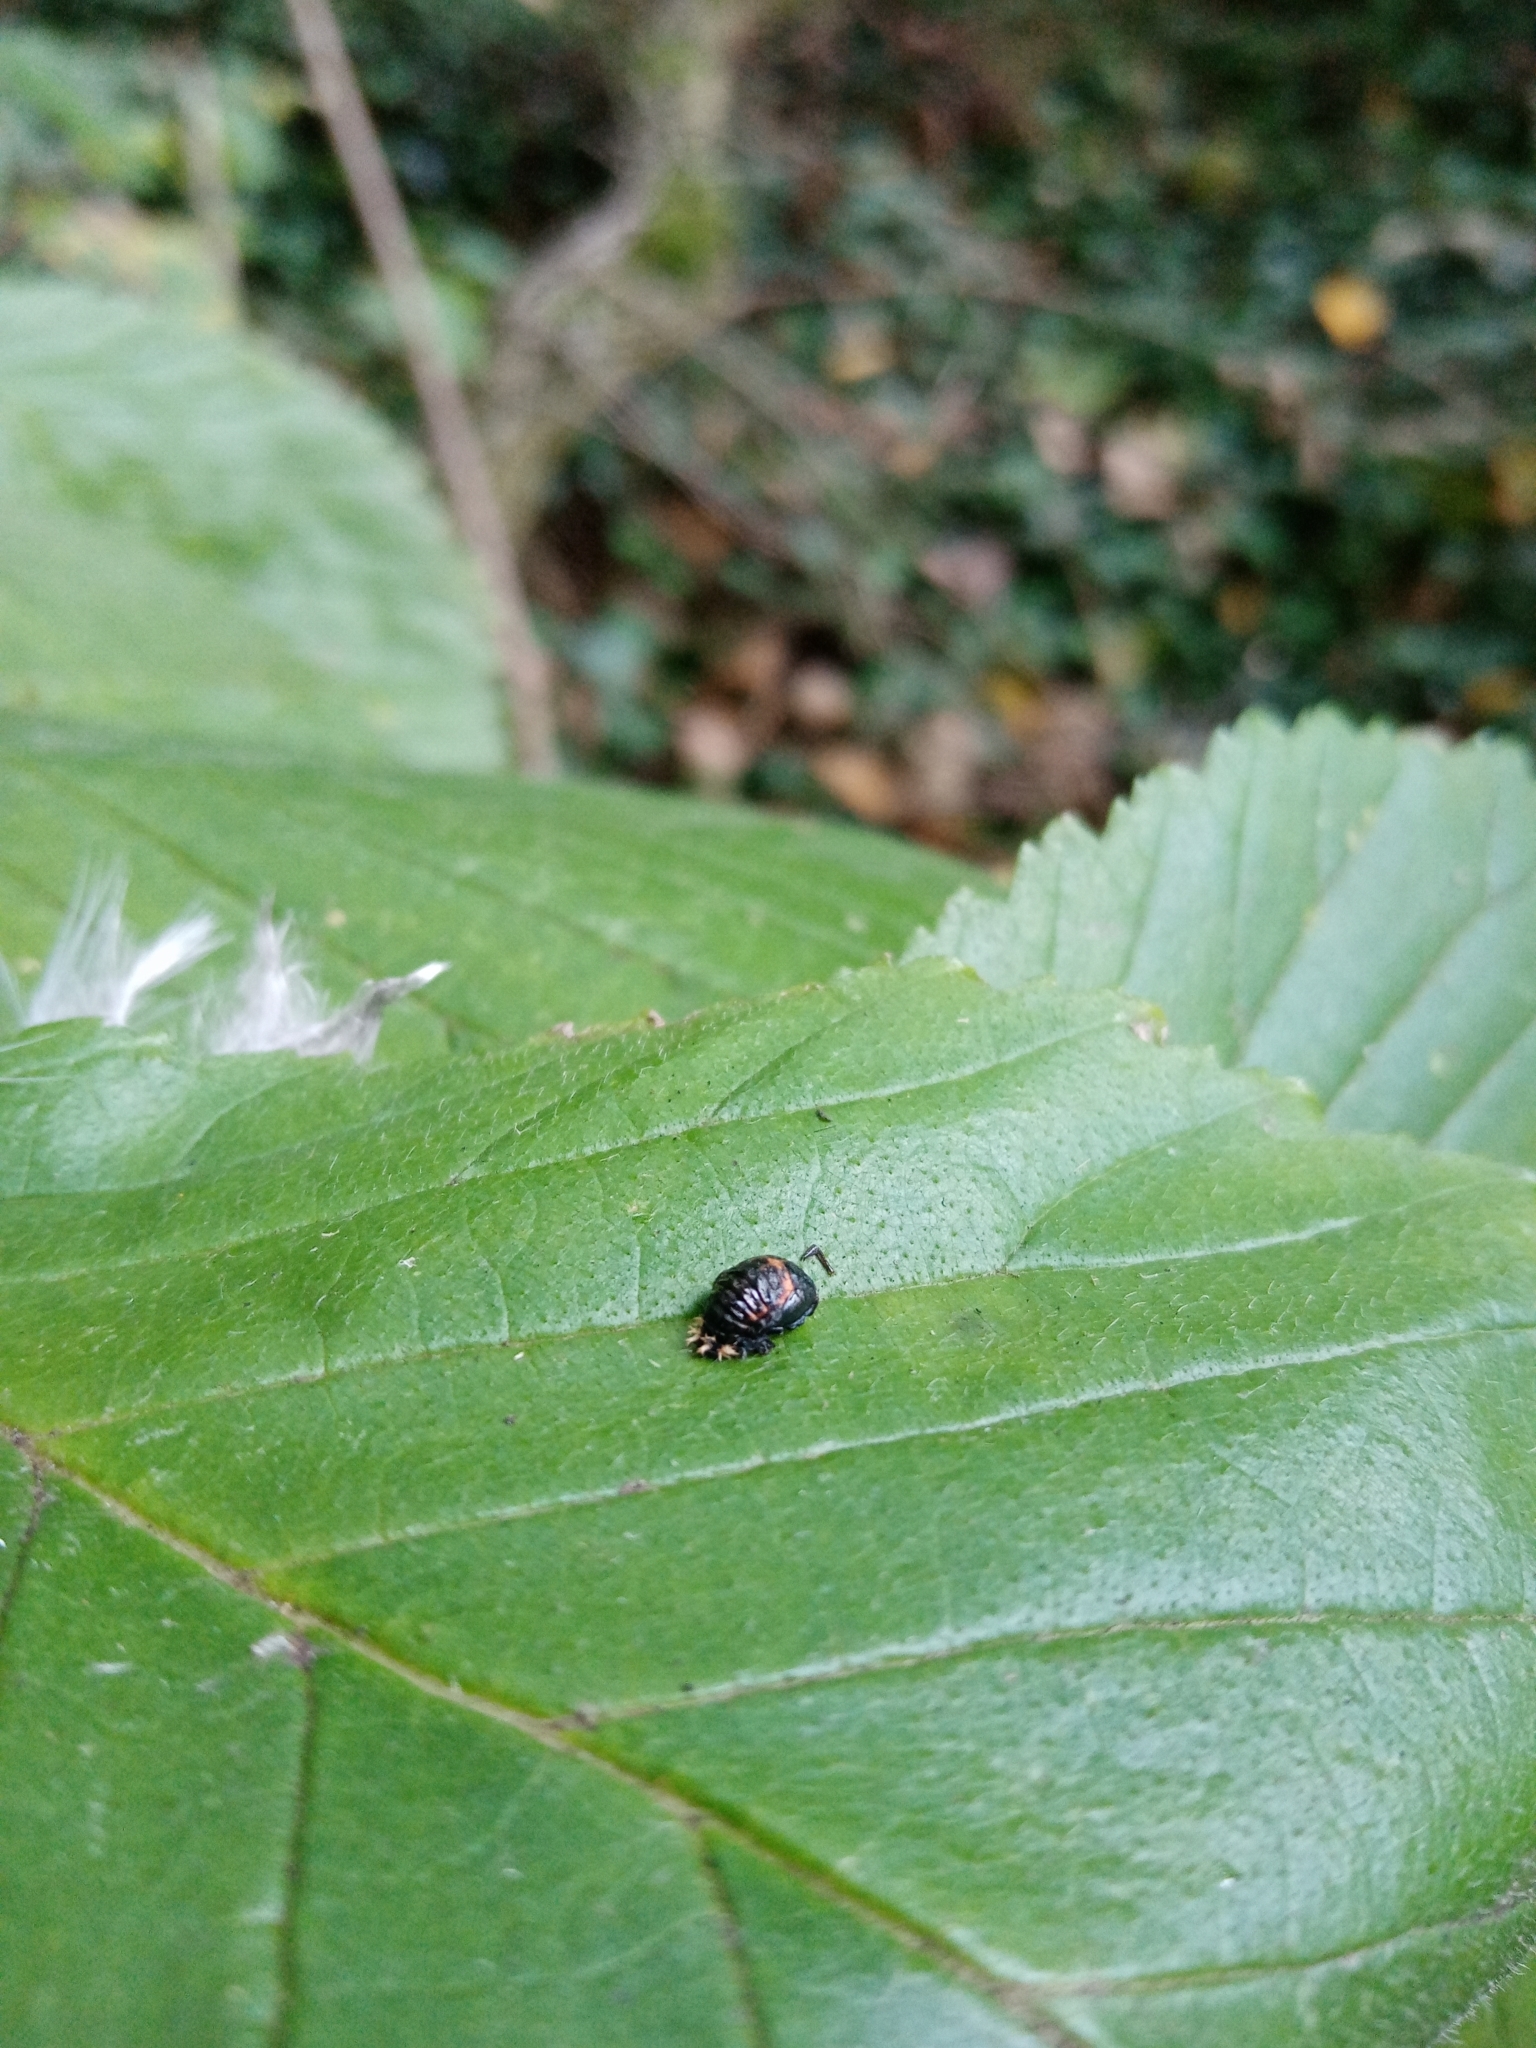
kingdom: Animalia
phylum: Arthropoda
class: Insecta
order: Coleoptera
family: Coccinellidae
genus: Harmonia
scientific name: Harmonia axyridis
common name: Harlequin ladybird
